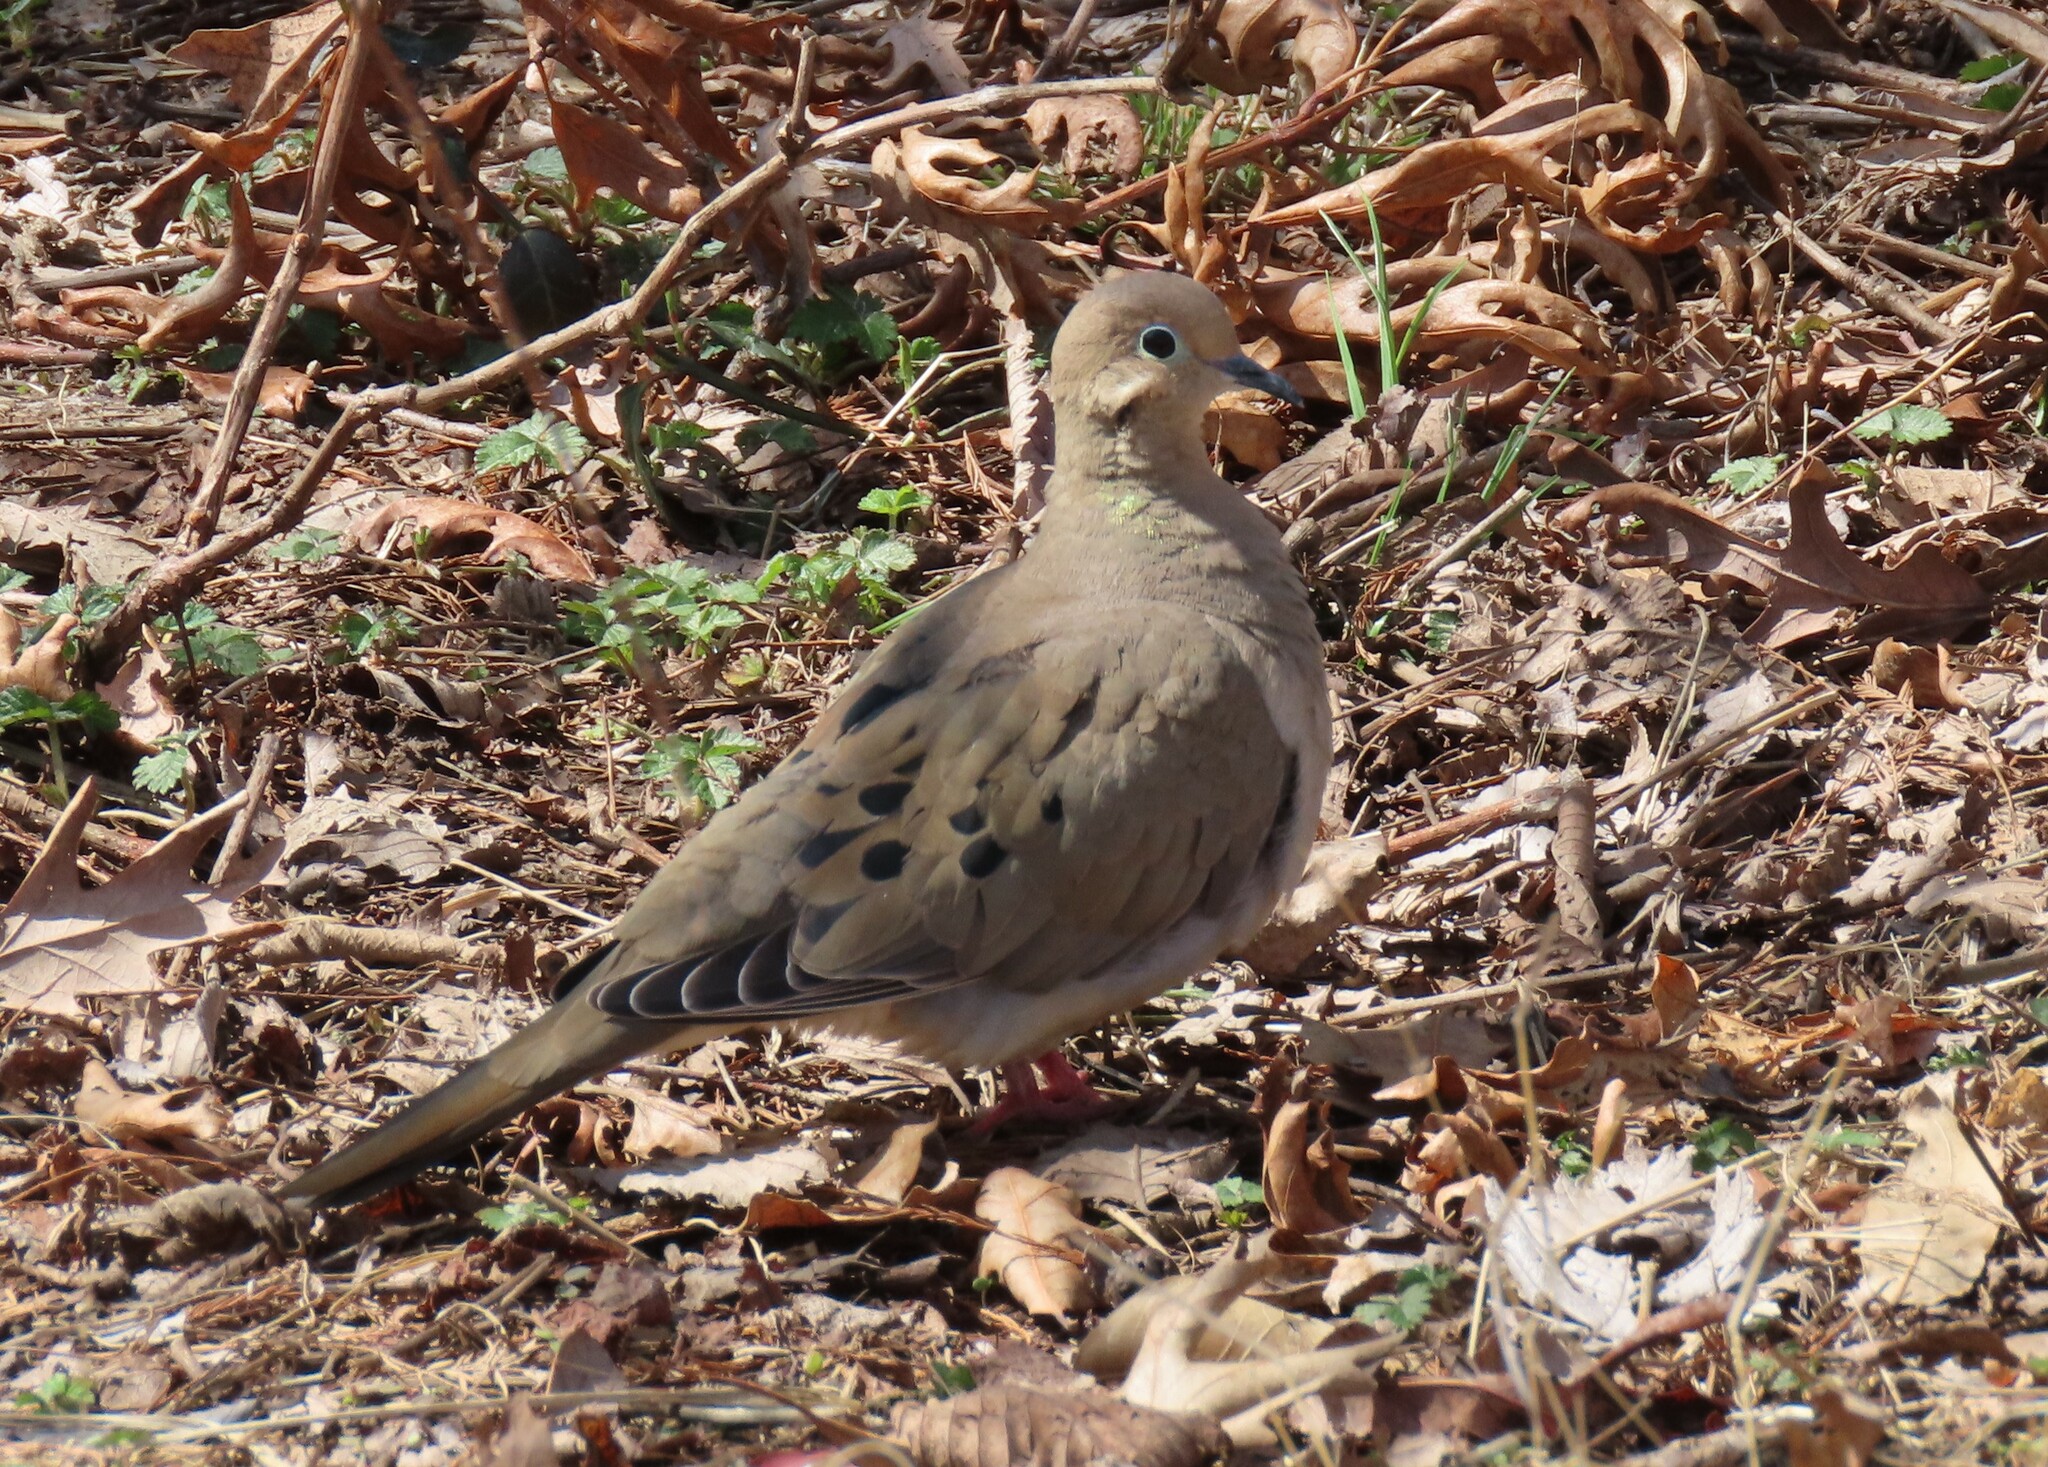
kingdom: Animalia
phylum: Chordata
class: Aves
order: Columbiformes
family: Columbidae
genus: Zenaida
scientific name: Zenaida macroura
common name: Mourning dove
